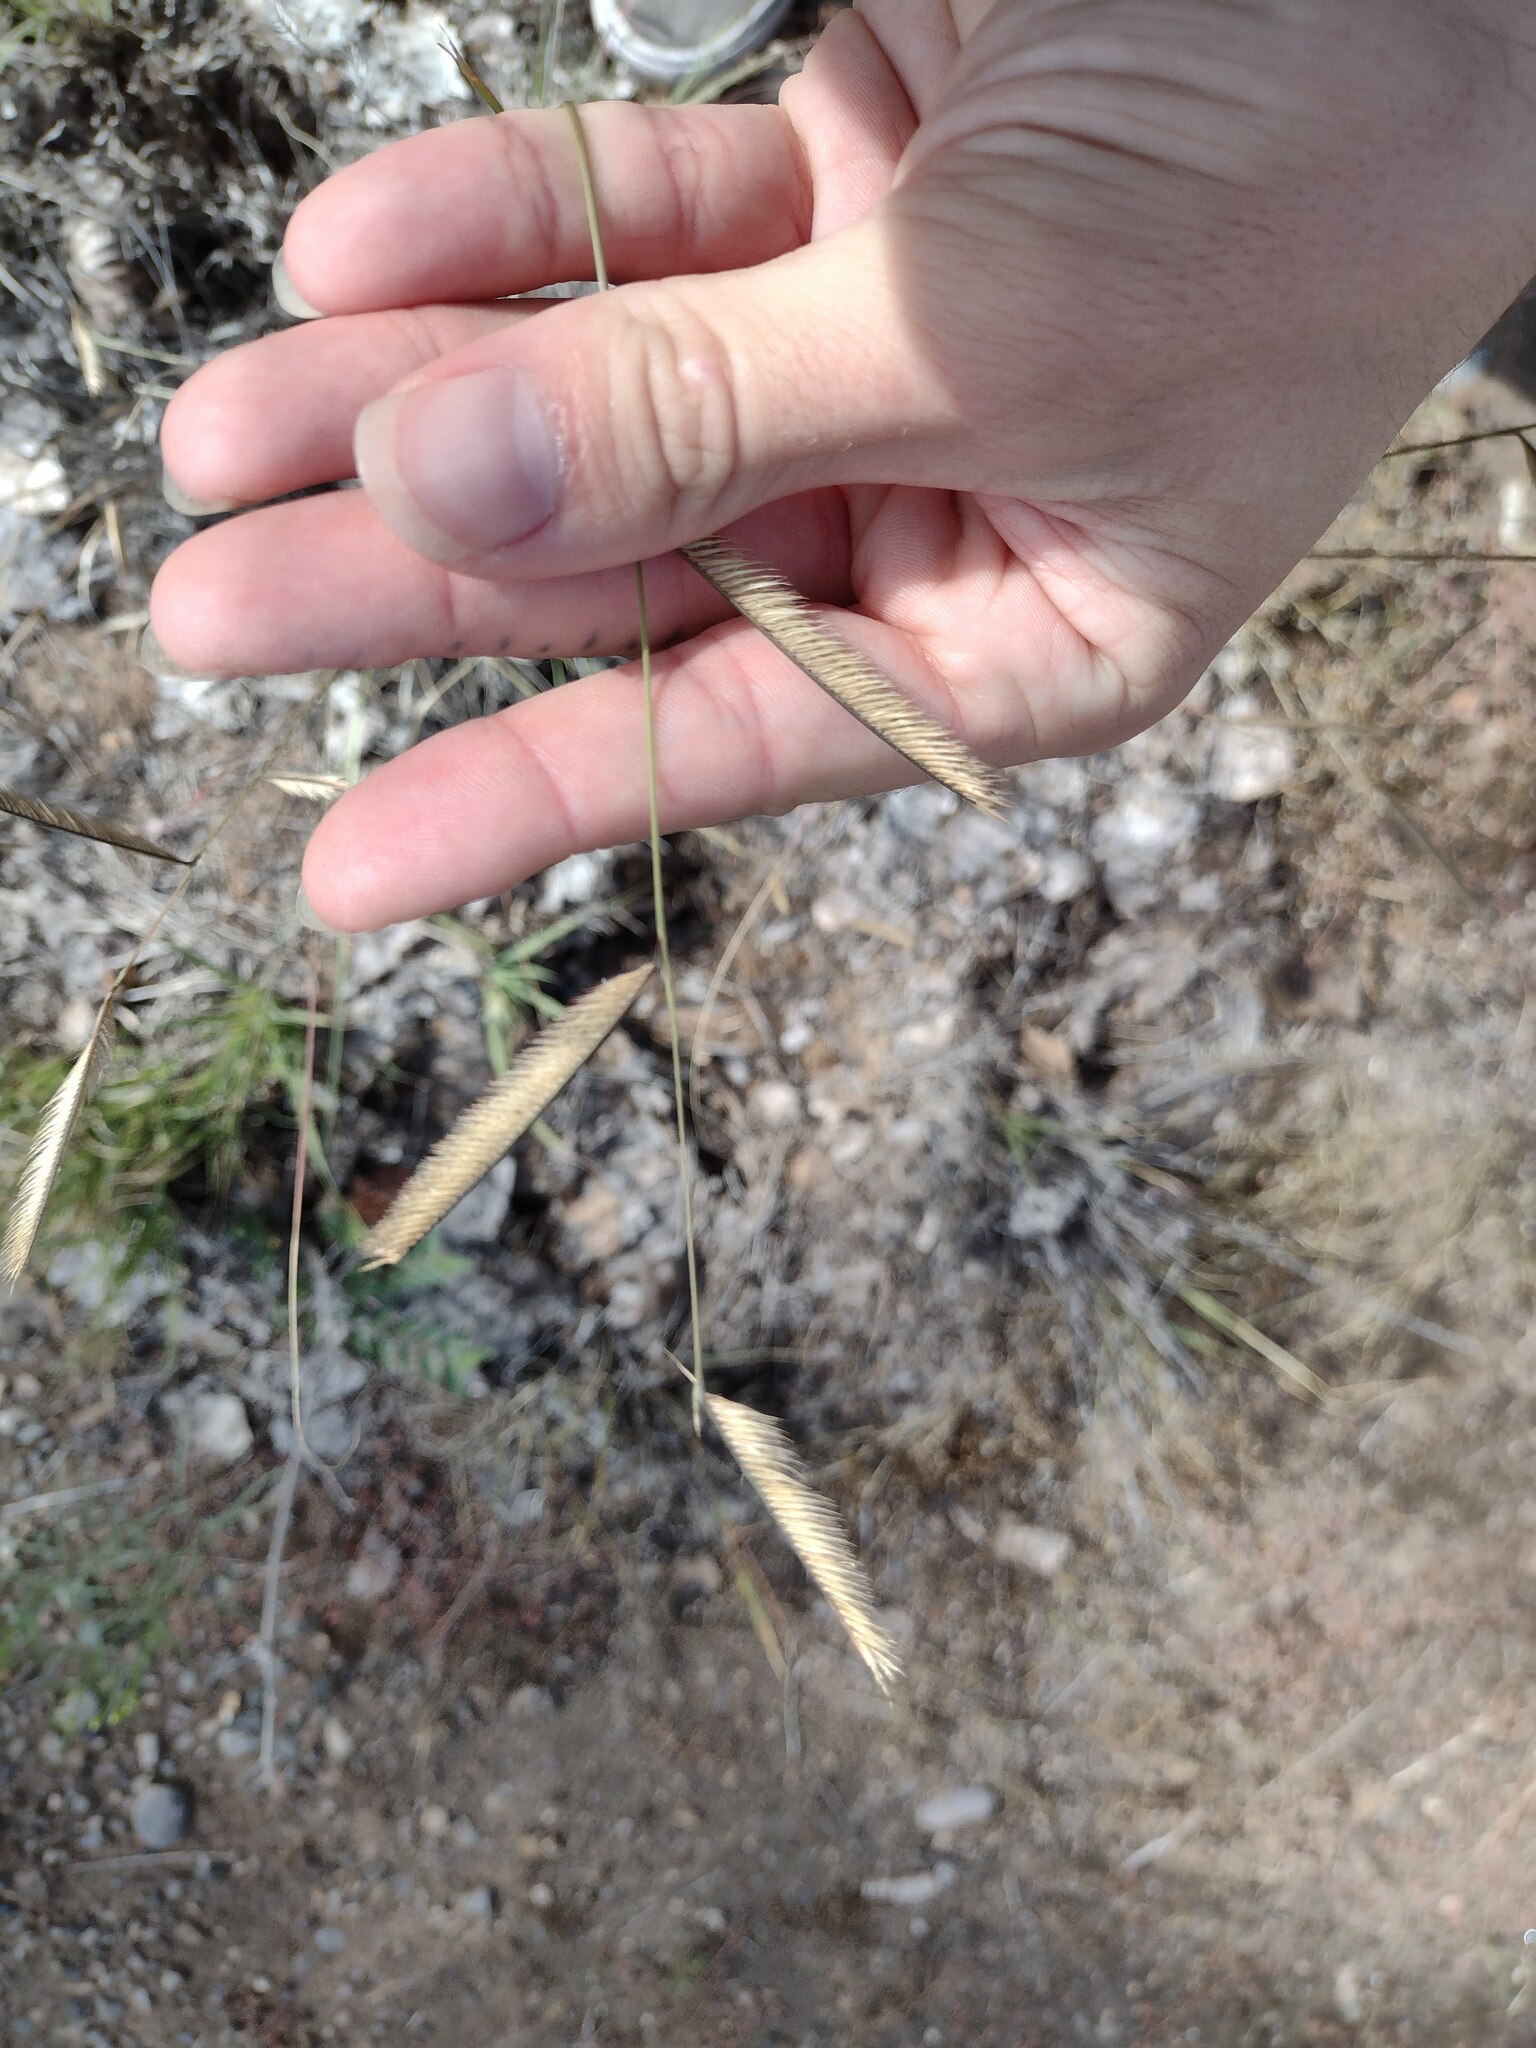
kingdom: Plantae
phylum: Tracheophyta
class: Liliopsida
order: Poales
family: Poaceae
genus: Bouteloua
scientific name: Bouteloua gracilis
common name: Blue grama
